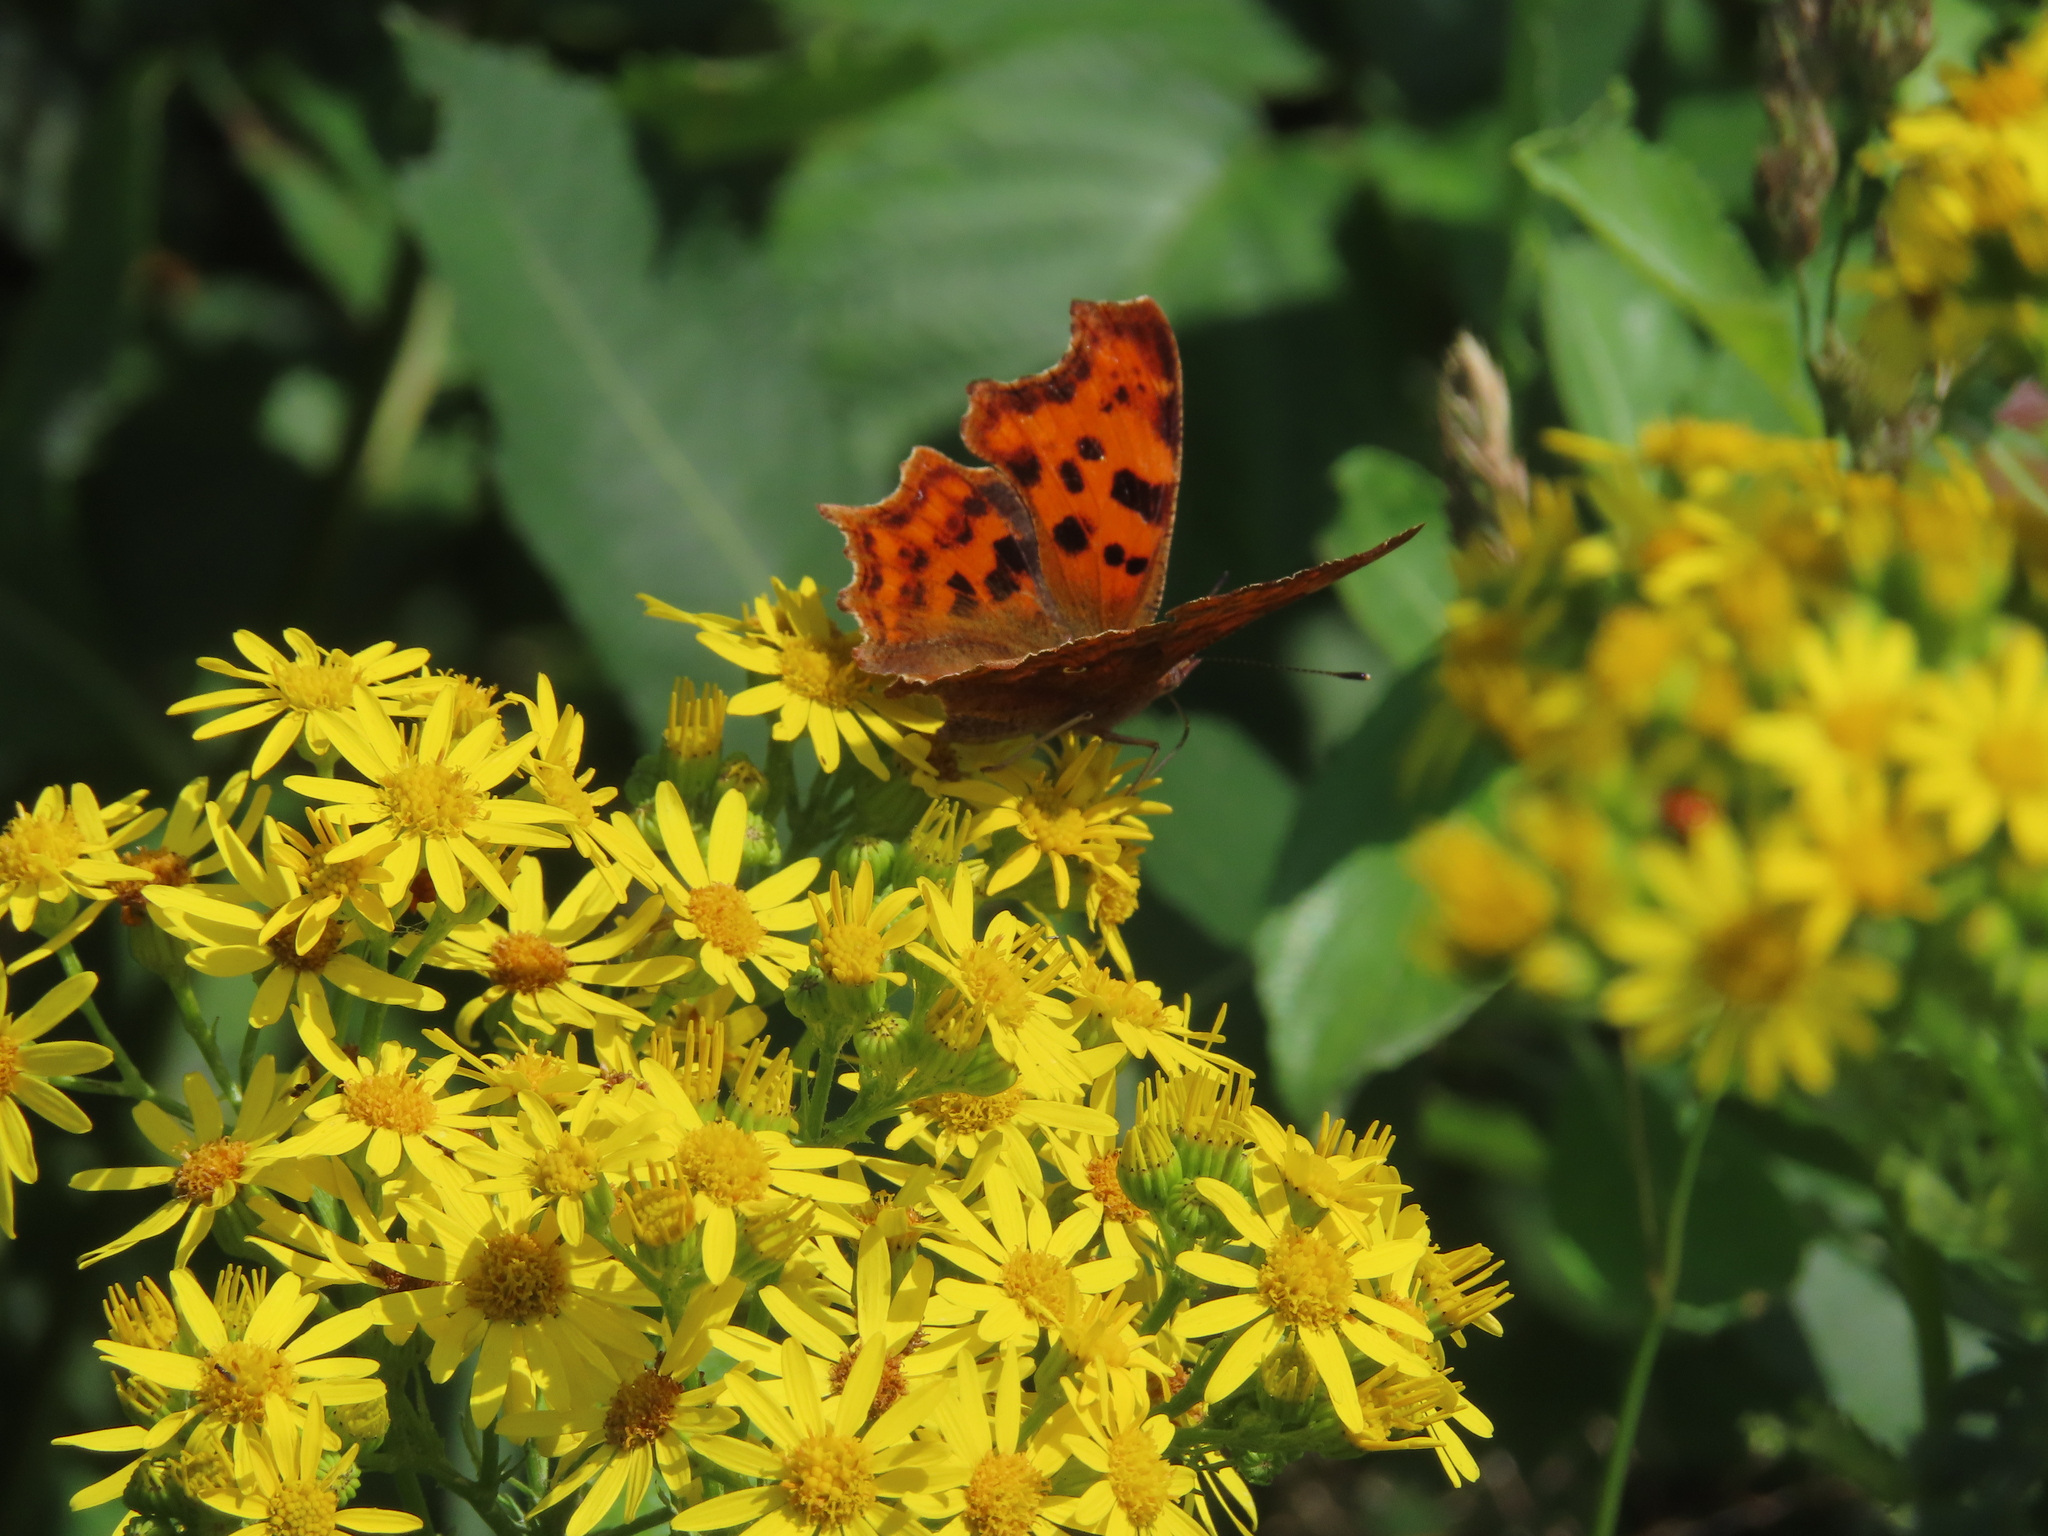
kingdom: Animalia
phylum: Arthropoda
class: Insecta
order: Lepidoptera
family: Nymphalidae
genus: Polygonia
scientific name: Polygonia c-album
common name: Comma
